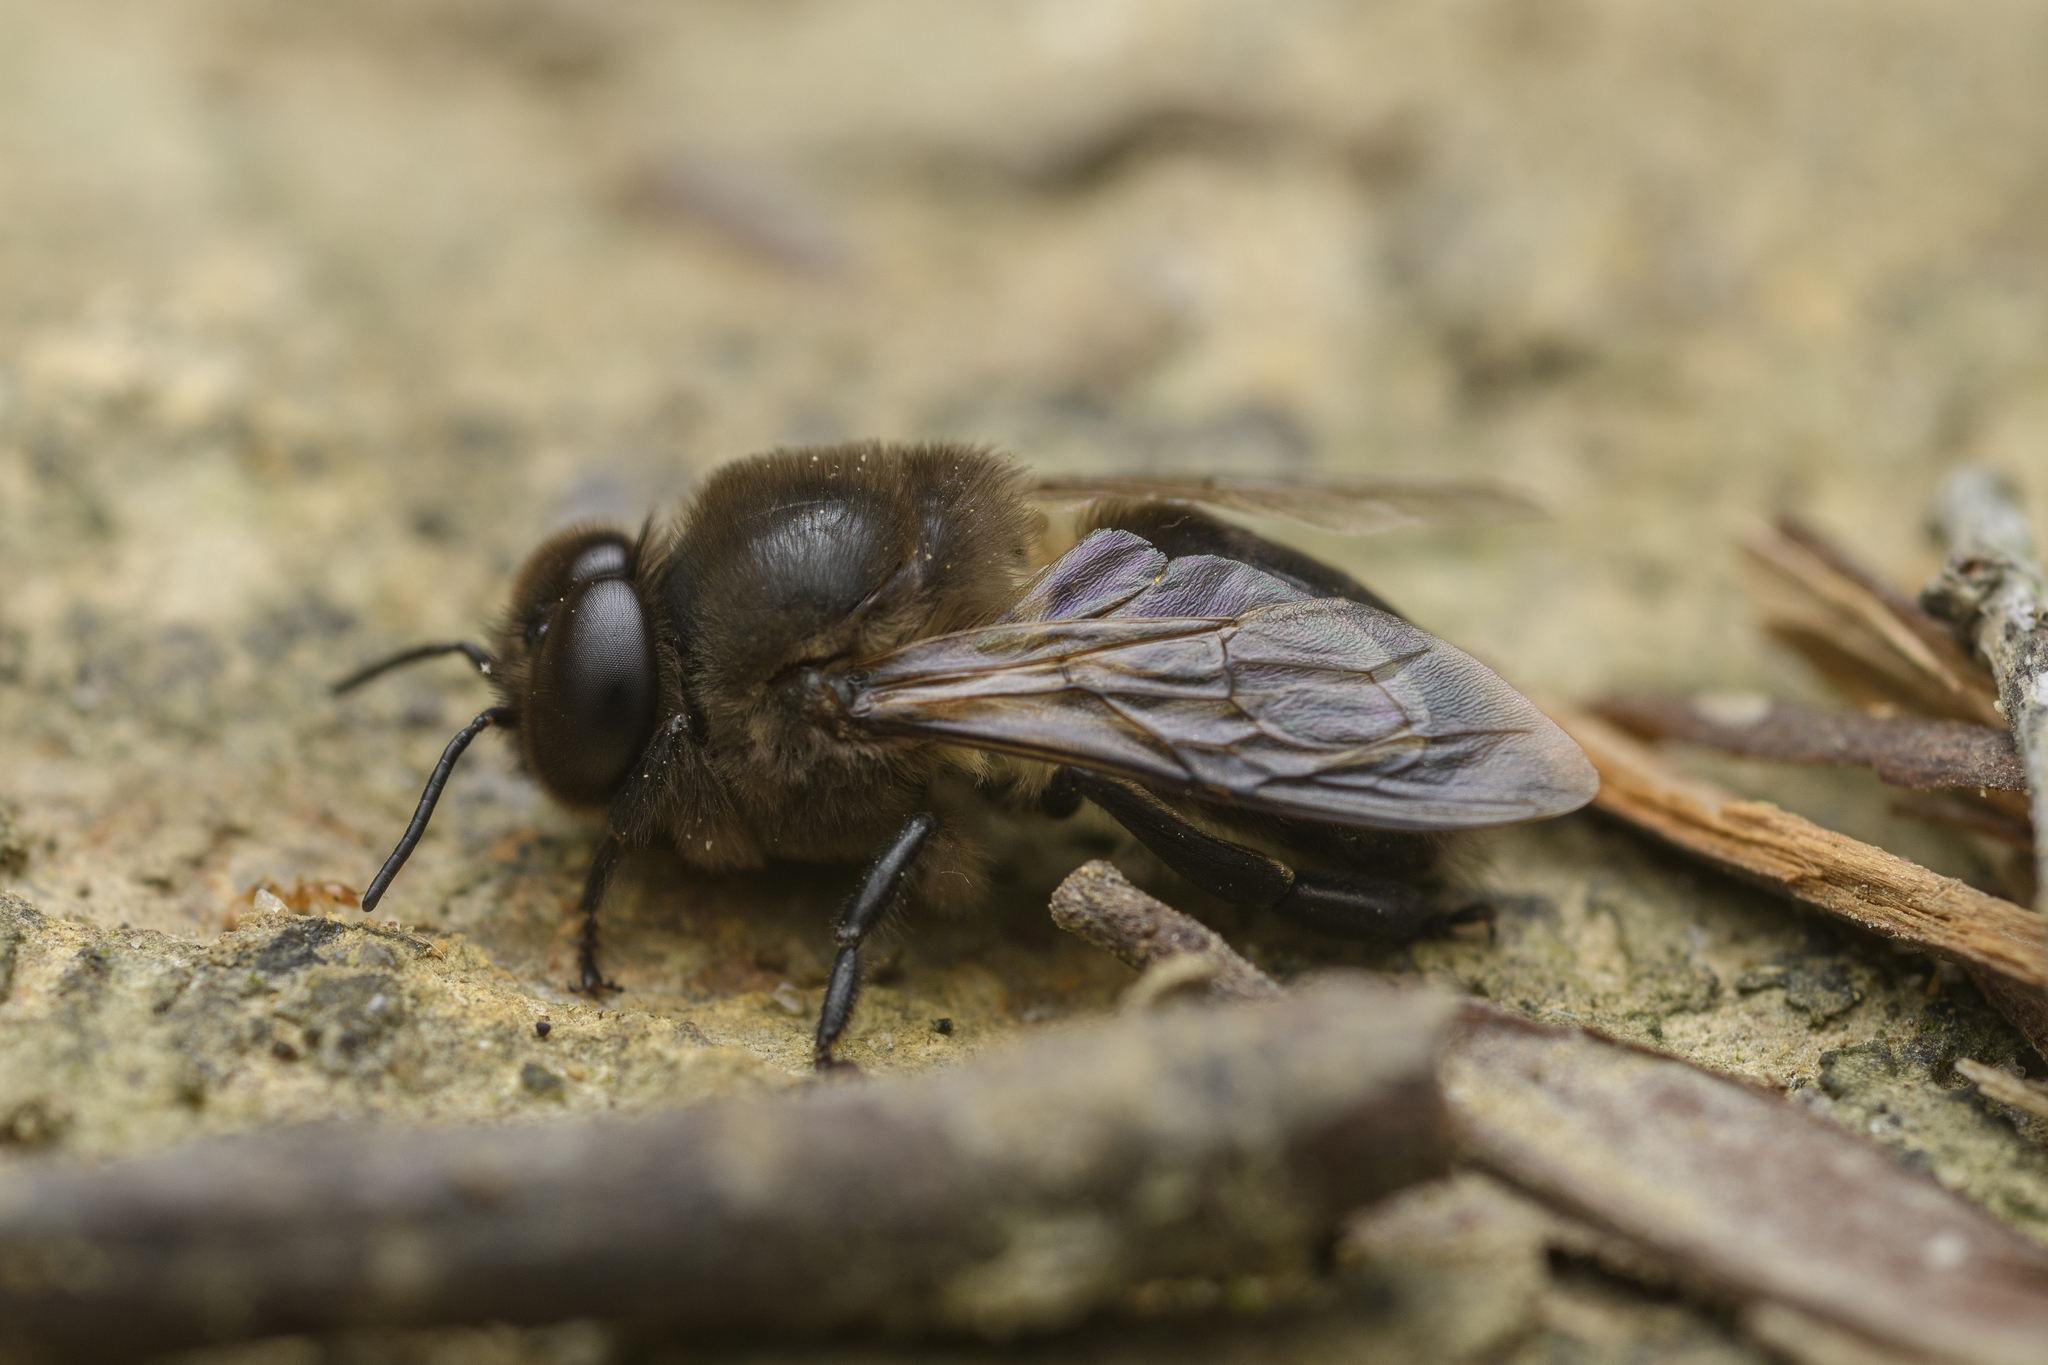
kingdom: Animalia
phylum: Arthropoda
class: Insecta
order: Hymenoptera
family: Apidae
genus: Apis
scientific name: Apis cerana
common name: Honey bee
